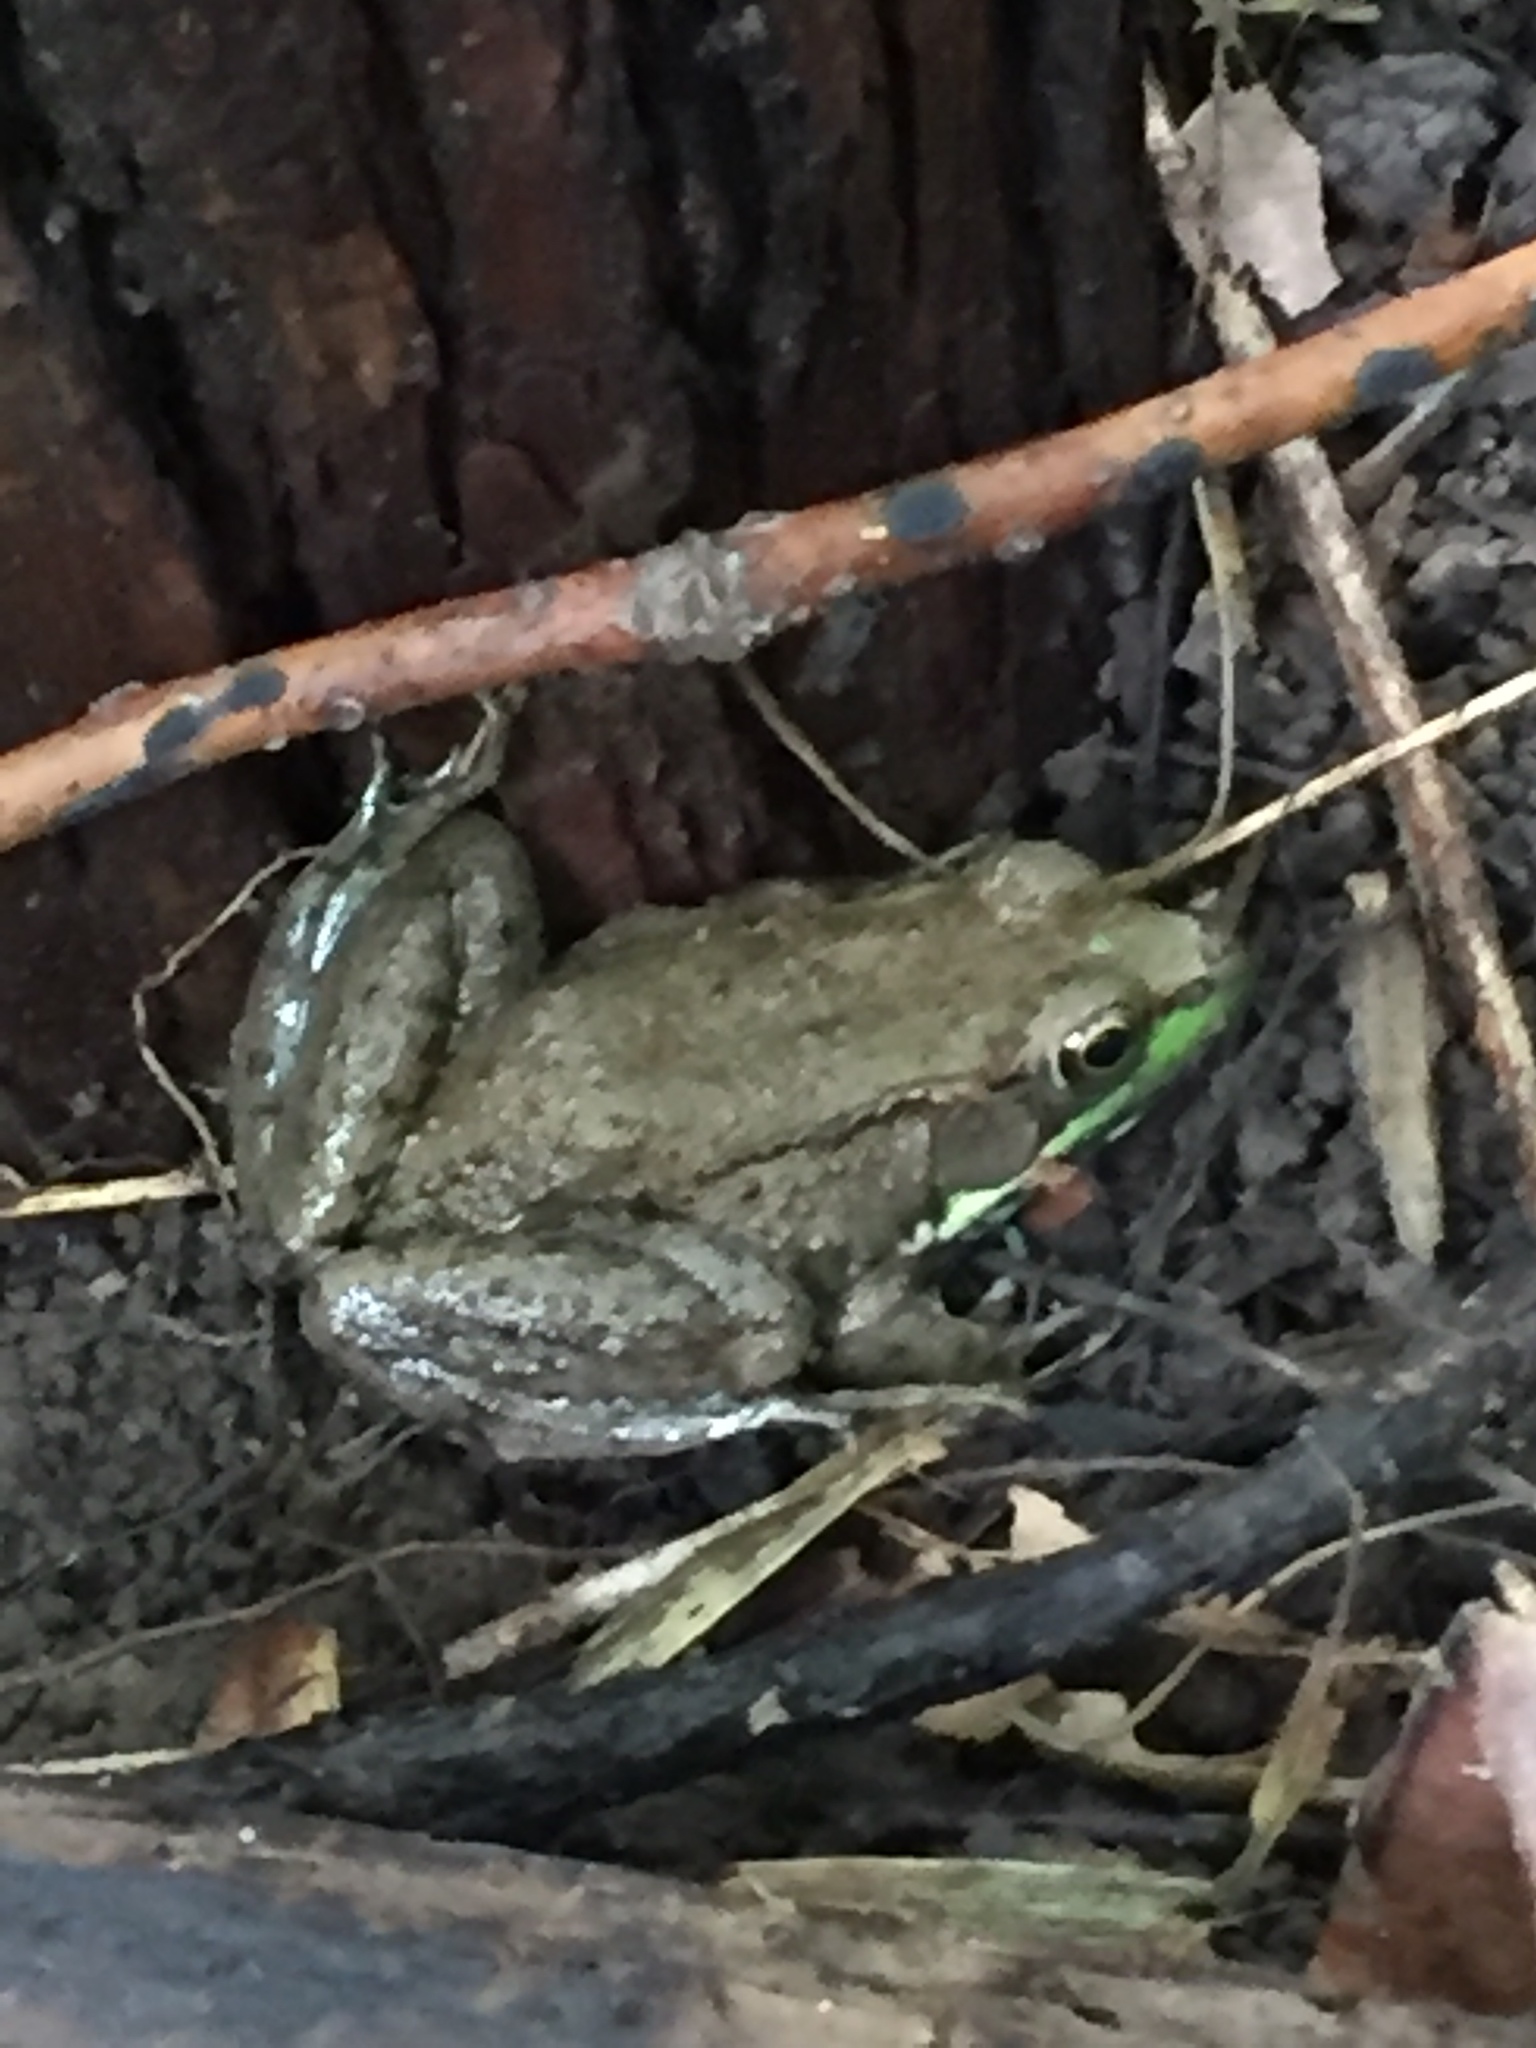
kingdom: Animalia
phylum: Chordata
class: Amphibia
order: Anura
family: Ranidae
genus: Lithobates
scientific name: Lithobates clamitans
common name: Green frog
